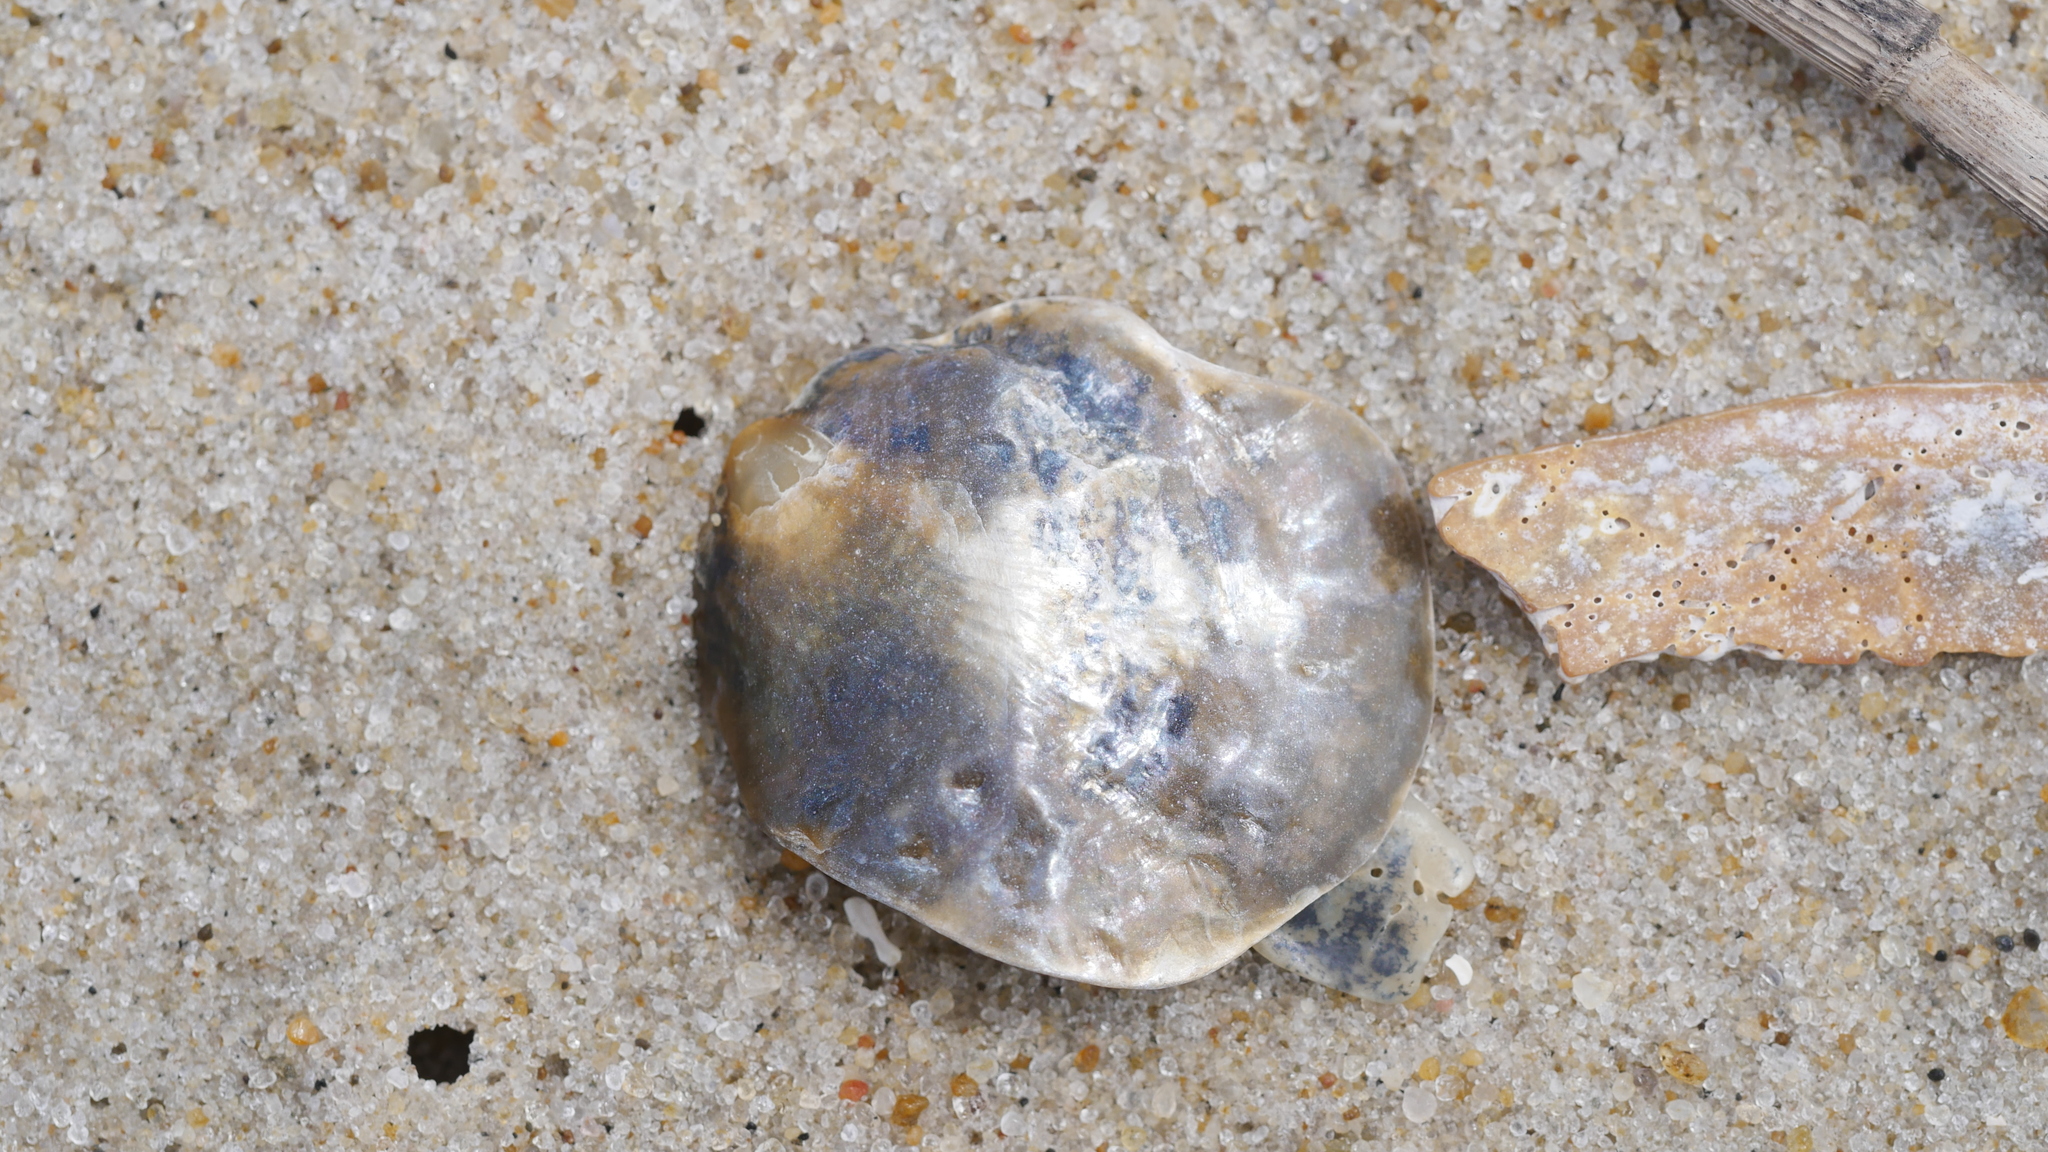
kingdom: Animalia
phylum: Mollusca
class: Bivalvia
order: Pectinida
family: Anomiidae
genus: Anomia
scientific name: Anomia simplex
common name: Common jingle shell
